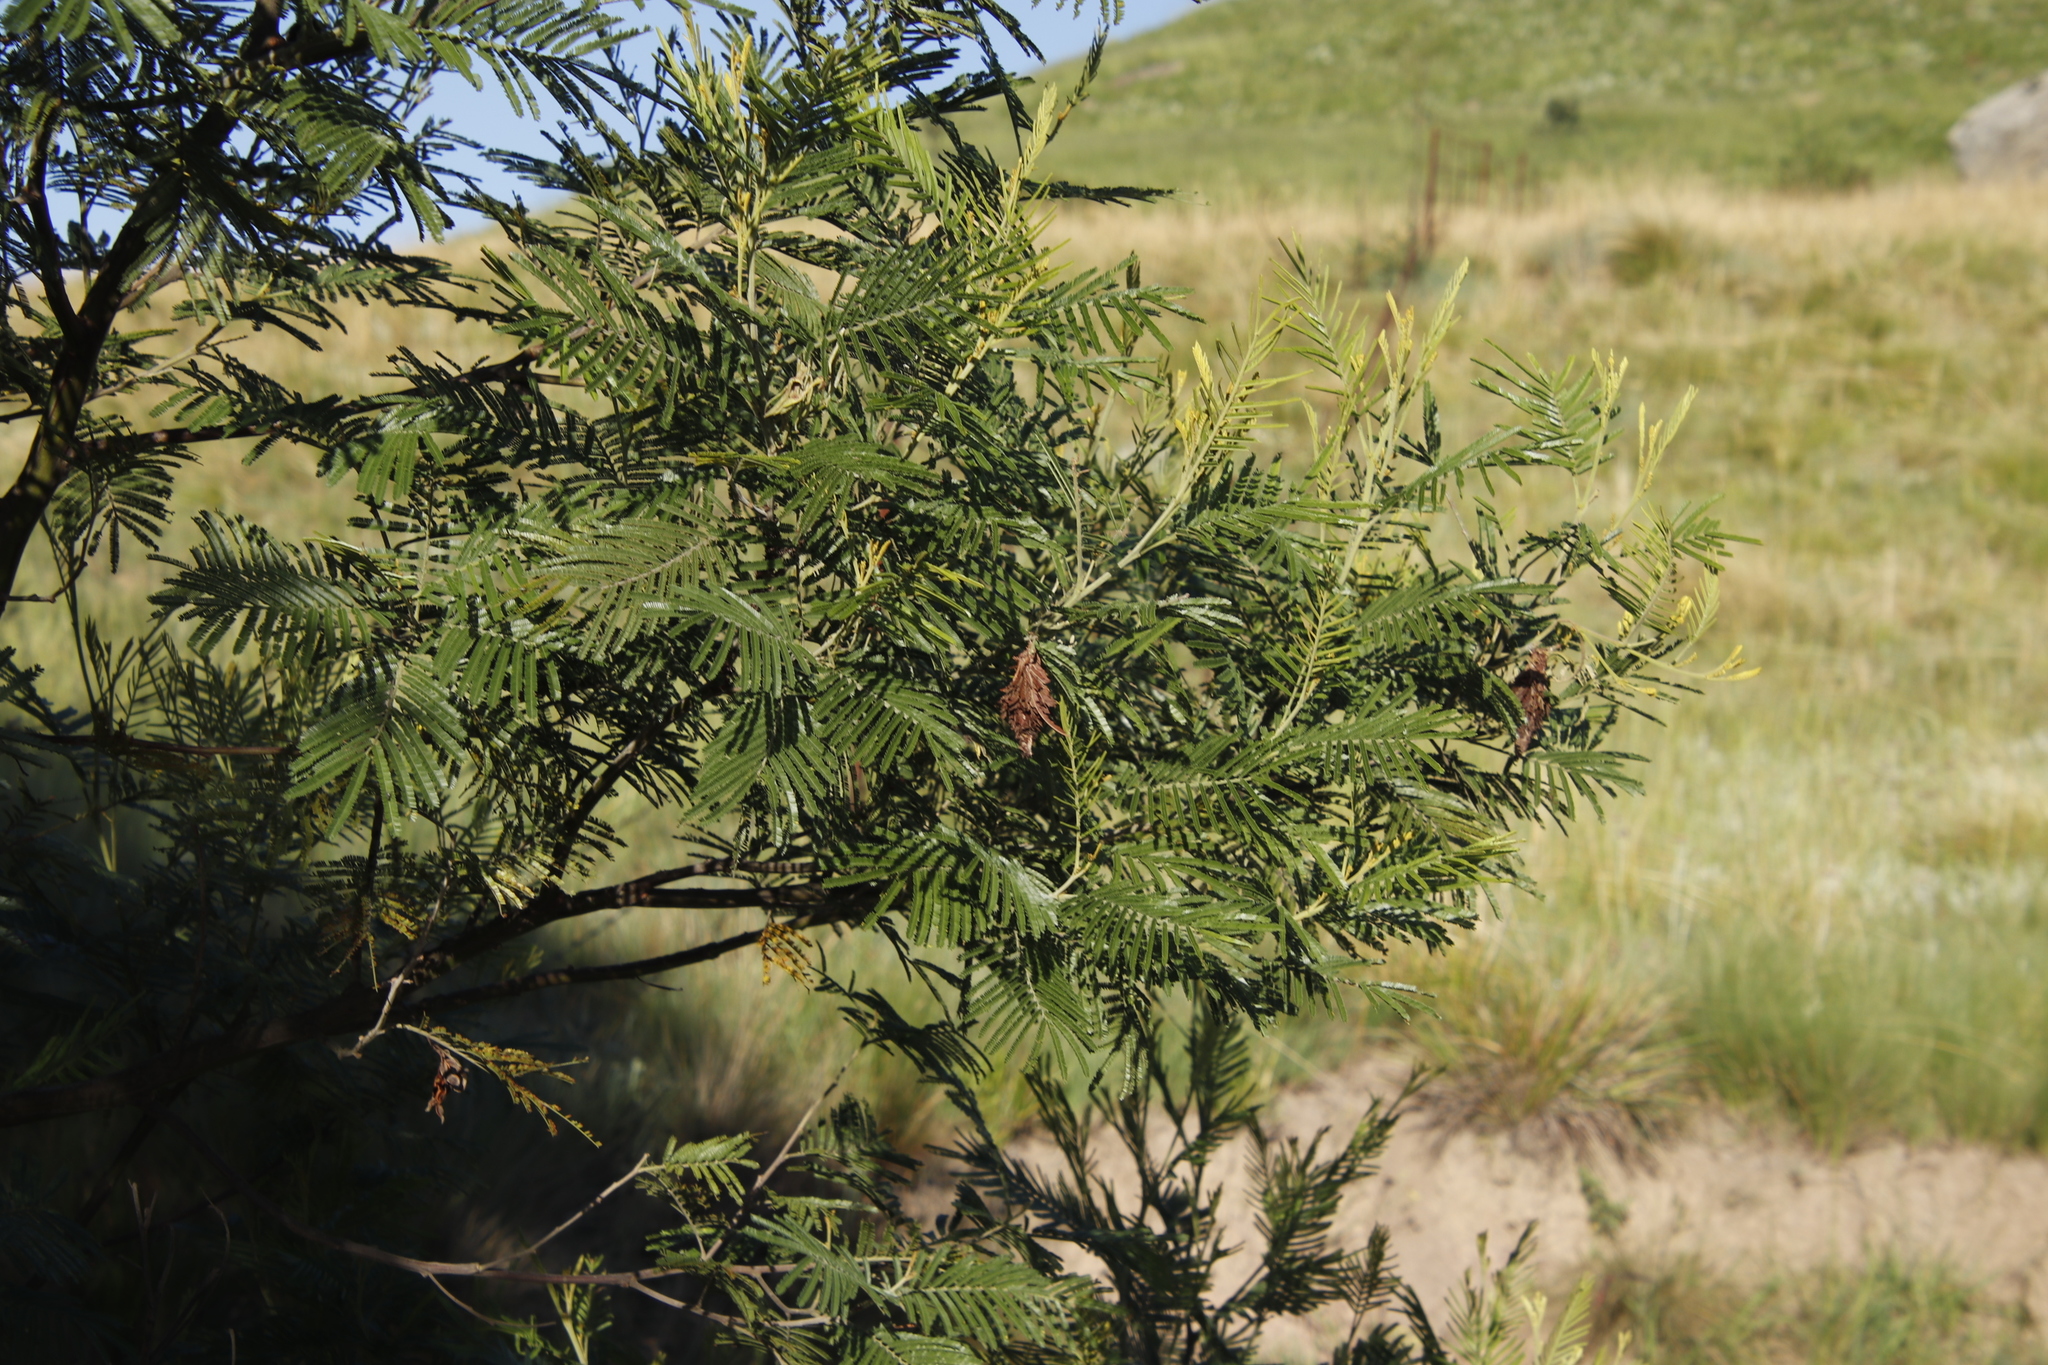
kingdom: Plantae
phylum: Tracheophyta
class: Magnoliopsida
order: Fabales
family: Fabaceae
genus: Acacia
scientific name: Acacia mearnsii
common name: Black wattle
